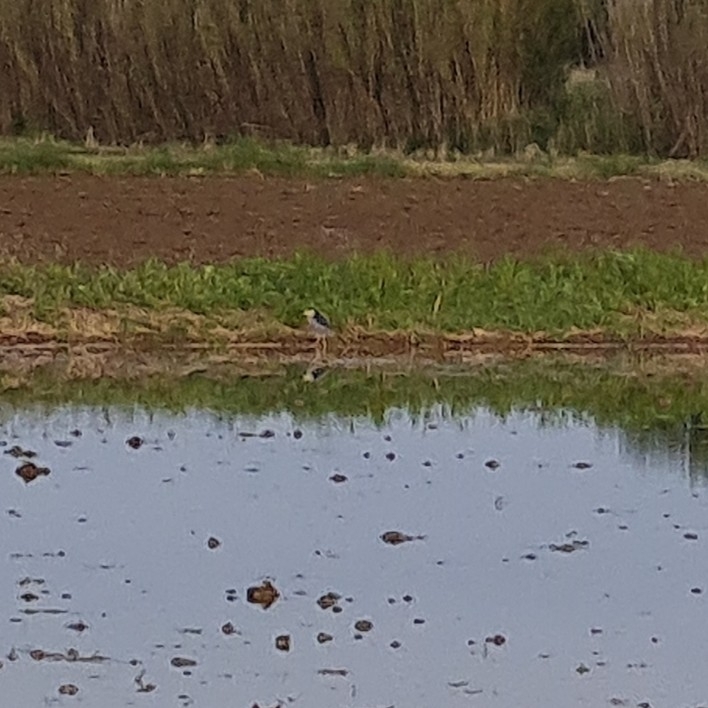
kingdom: Animalia
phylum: Chordata
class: Aves
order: Pelecaniformes
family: Ardeidae
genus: Nycticorax
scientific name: Nycticorax nycticorax
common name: Black-crowned night heron
